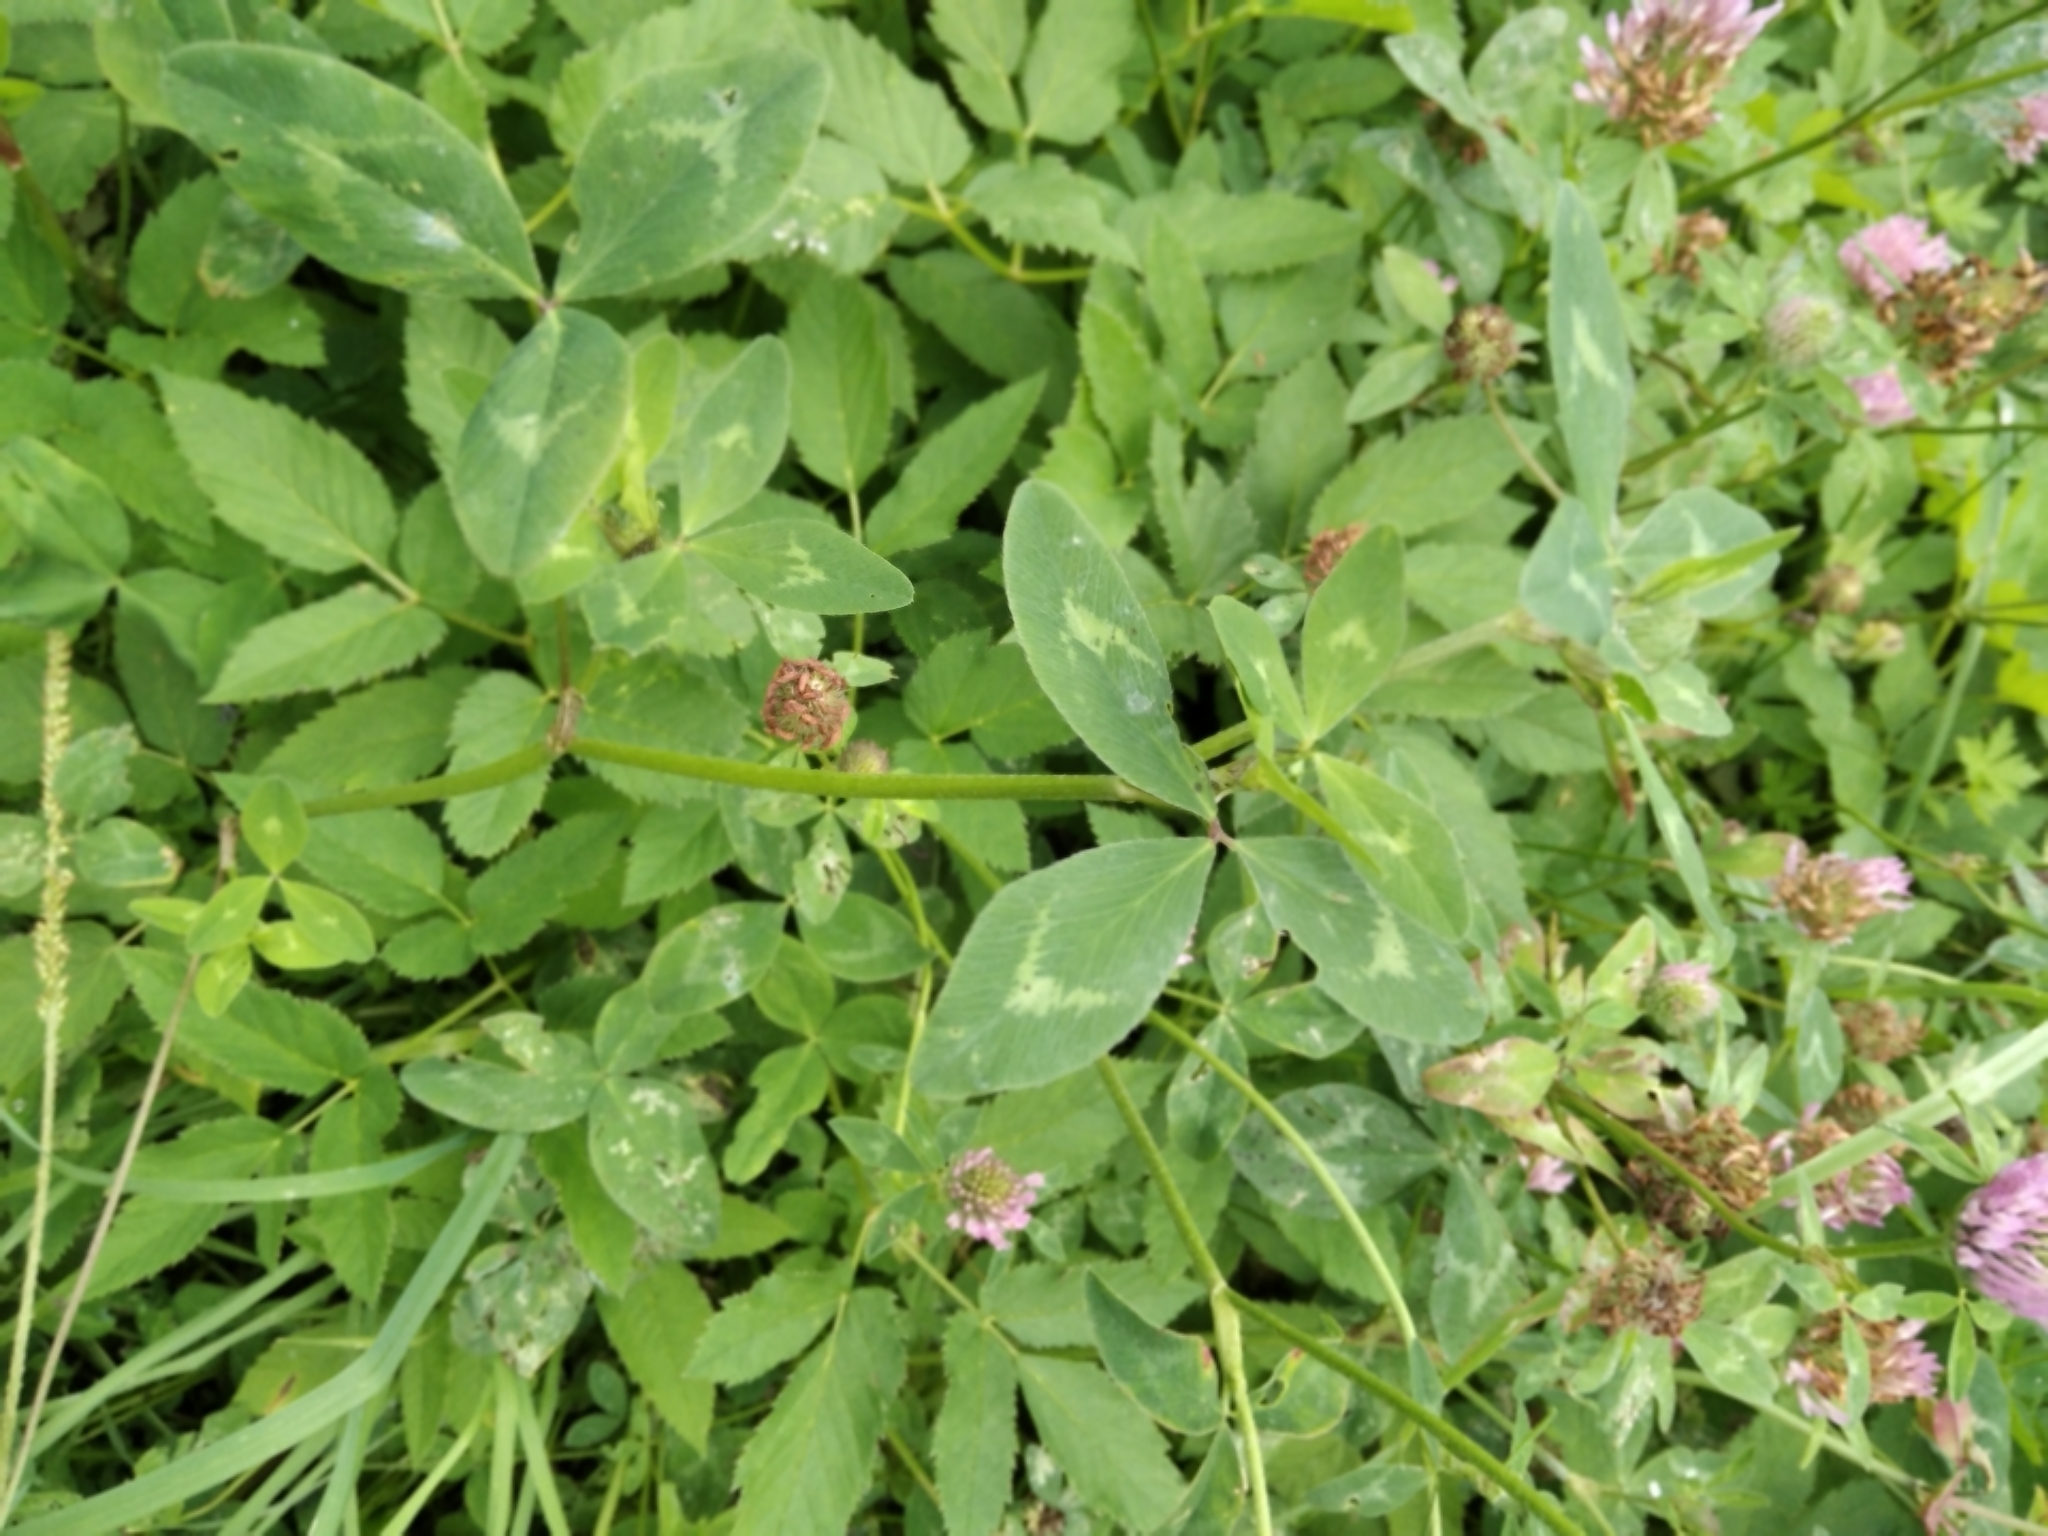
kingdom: Plantae
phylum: Tracheophyta
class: Magnoliopsida
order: Fabales
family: Fabaceae
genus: Trifolium
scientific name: Trifolium pratense
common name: Red clover
